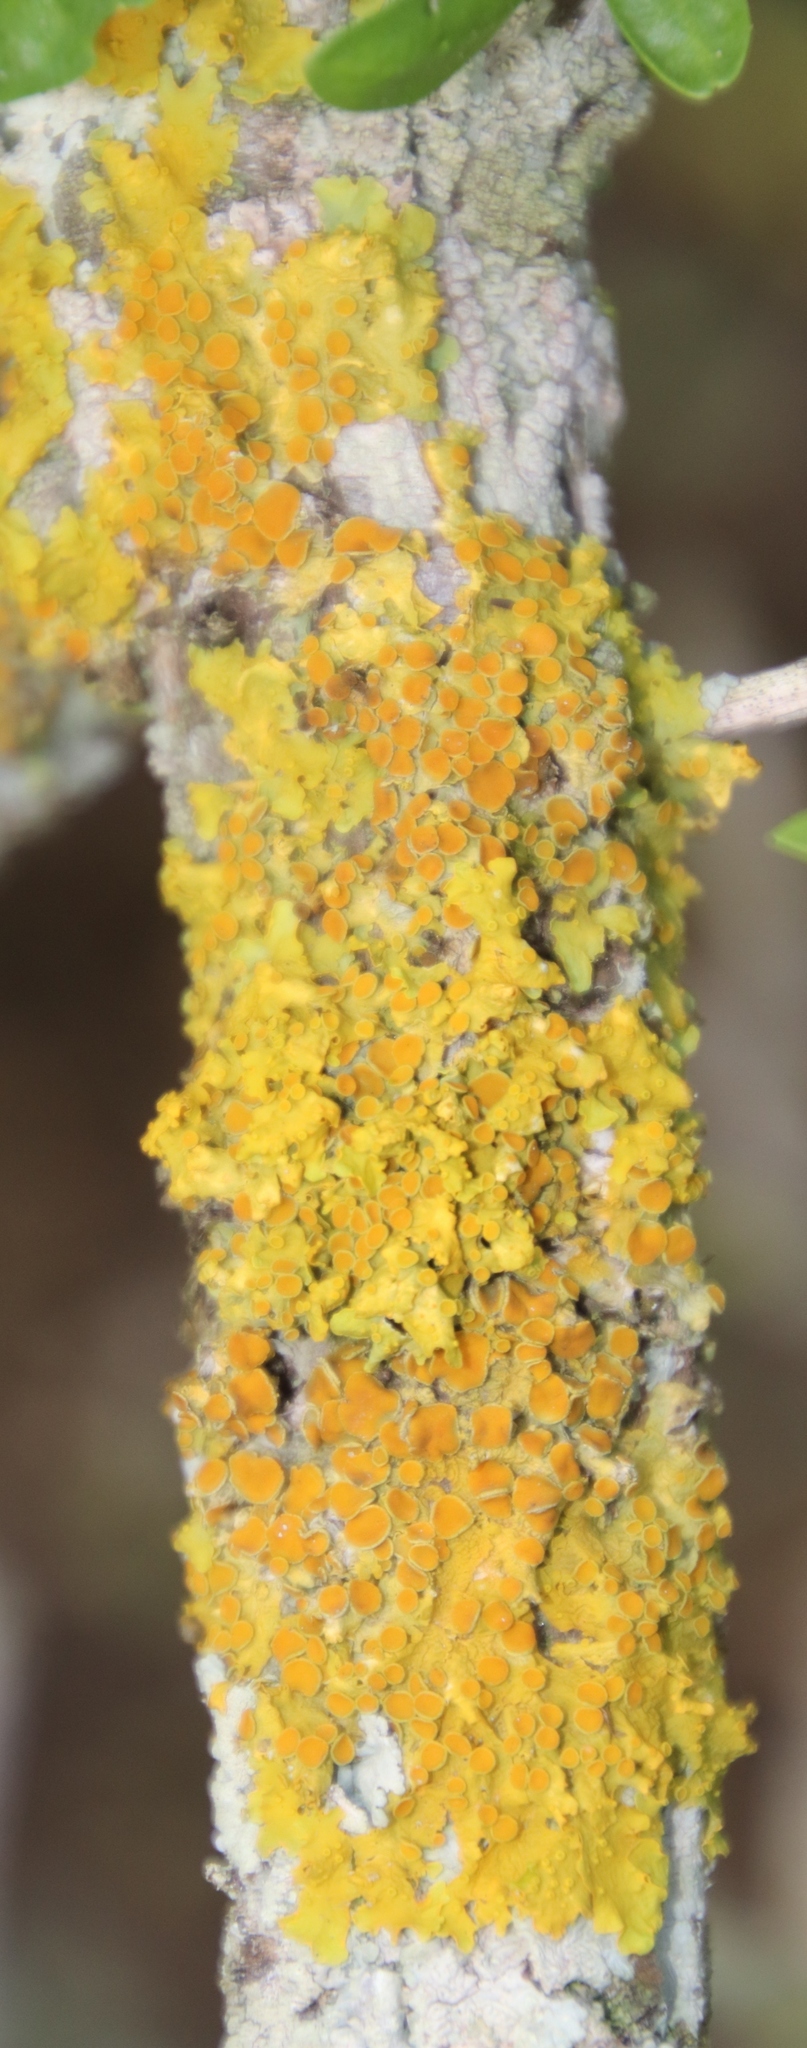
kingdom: Fungi
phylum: Ascomycota
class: Lecanoromycetes
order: Teloschistales
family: Teloschistaceae
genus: Xanthoria
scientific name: Xanthoria parietina
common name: Common orange lichen
